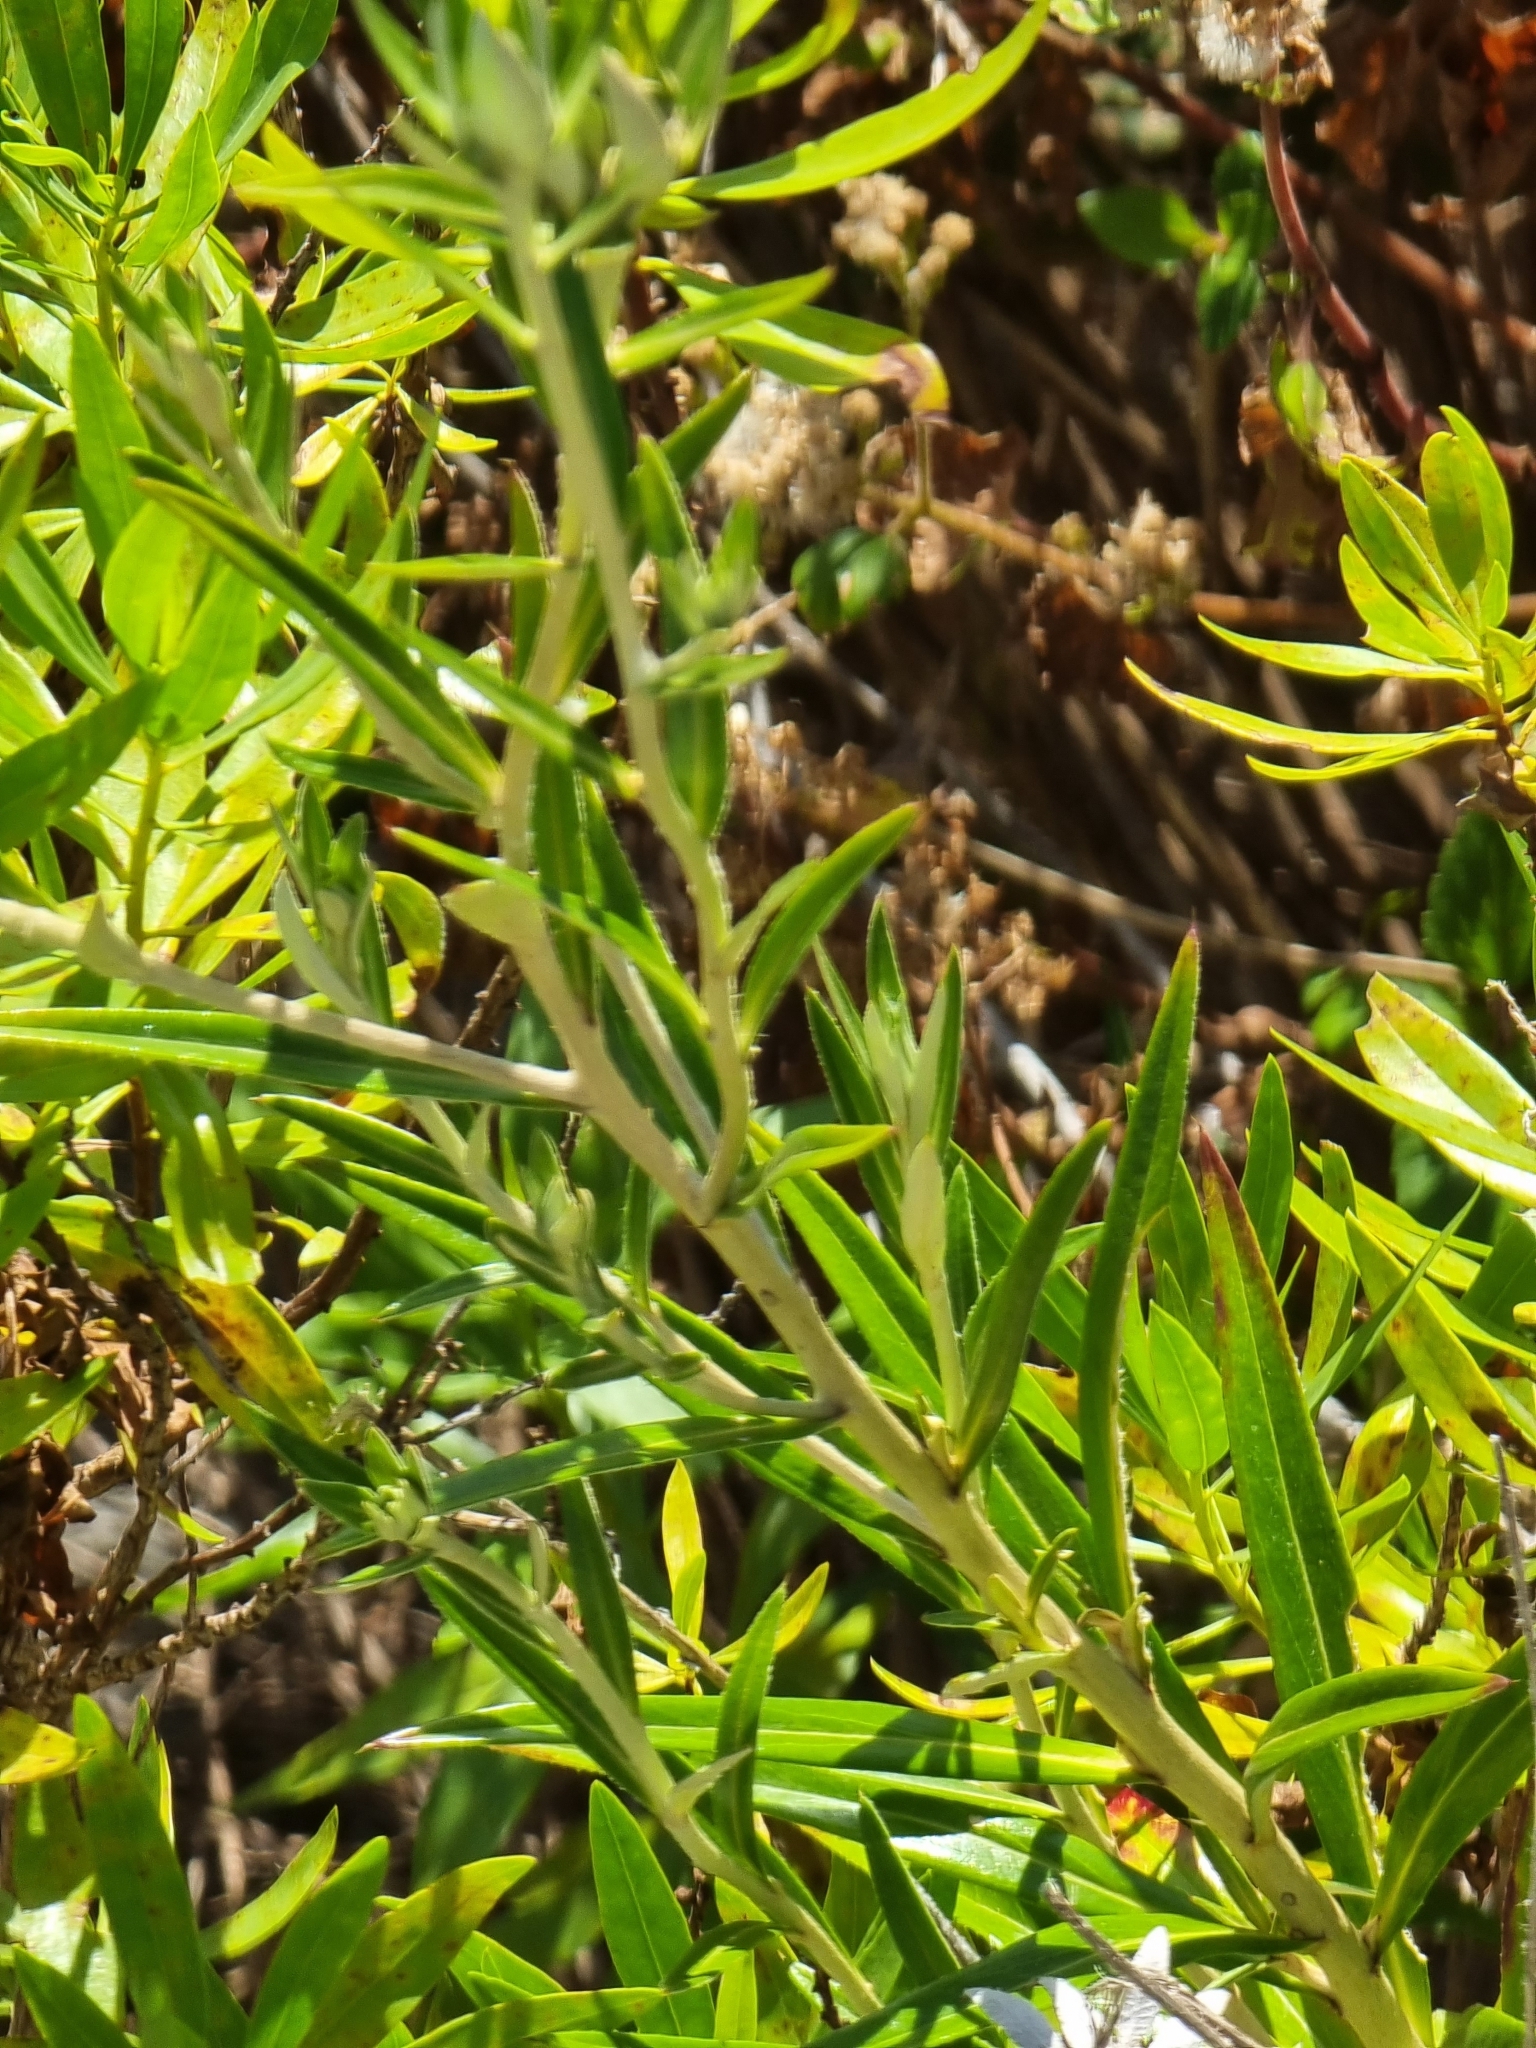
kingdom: Plantae
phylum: Tracheophyta
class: Magnoliopsida
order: Asterales
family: Asteraceae
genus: Carlina
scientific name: Carlina salicifolia
